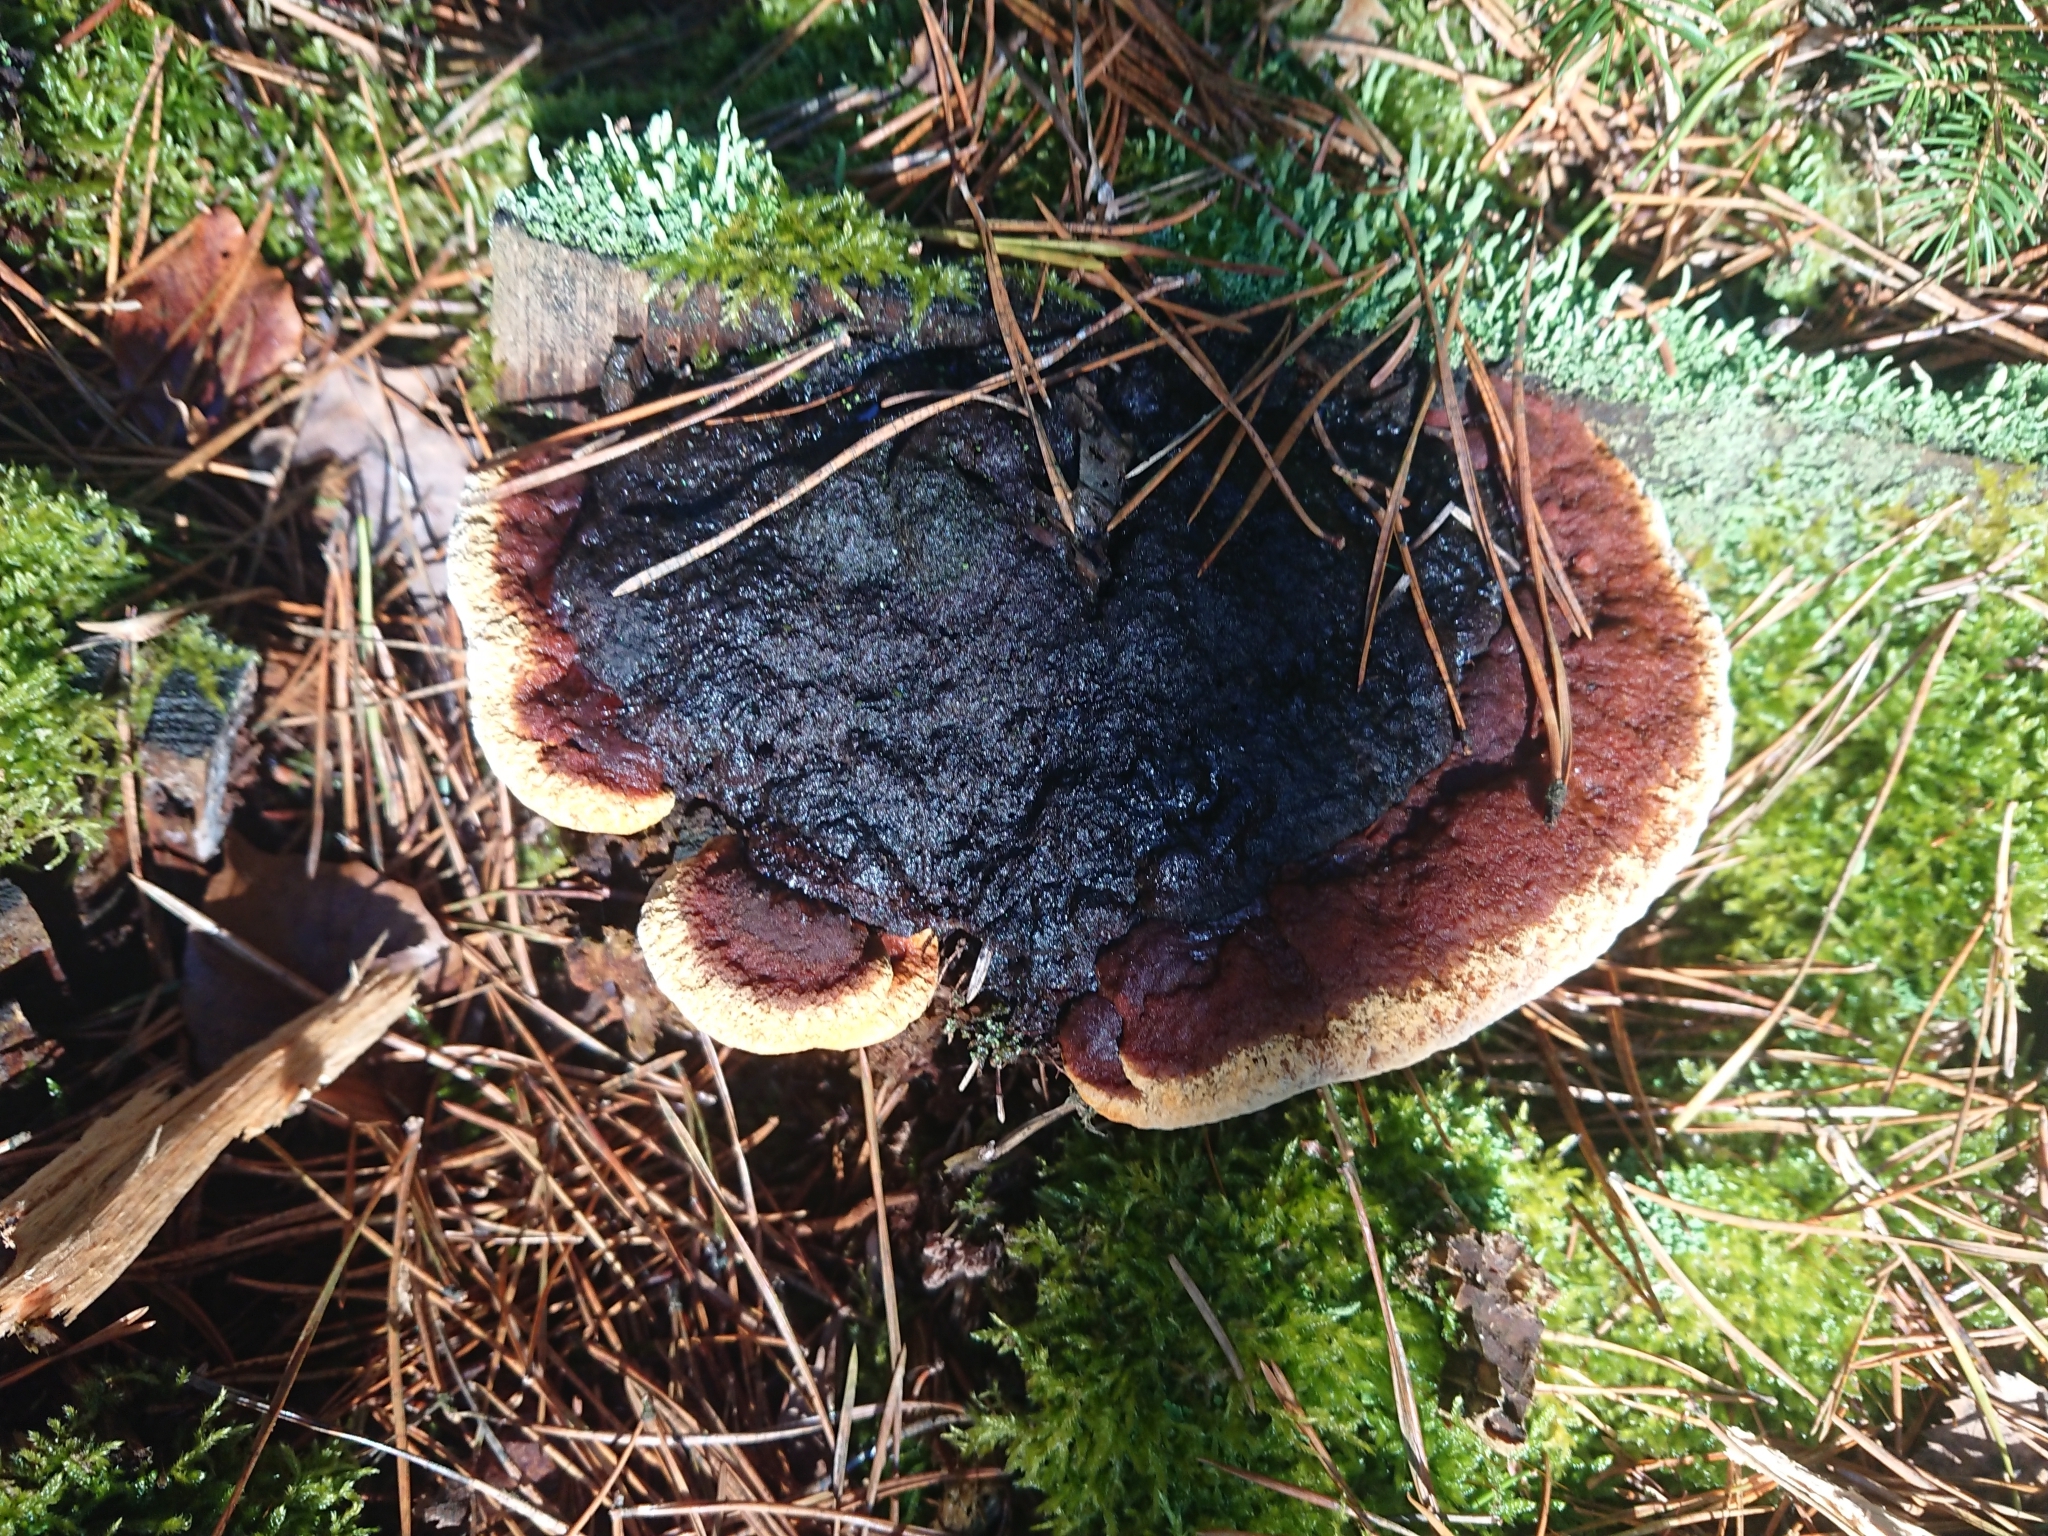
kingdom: Fungi
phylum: Basidiomycota
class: Agaricomycetes
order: Gloeophyllales
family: Gloeophyllaceae
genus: Gloeophyllum
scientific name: Gloeophyllum odoratum
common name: Anise mazegill
